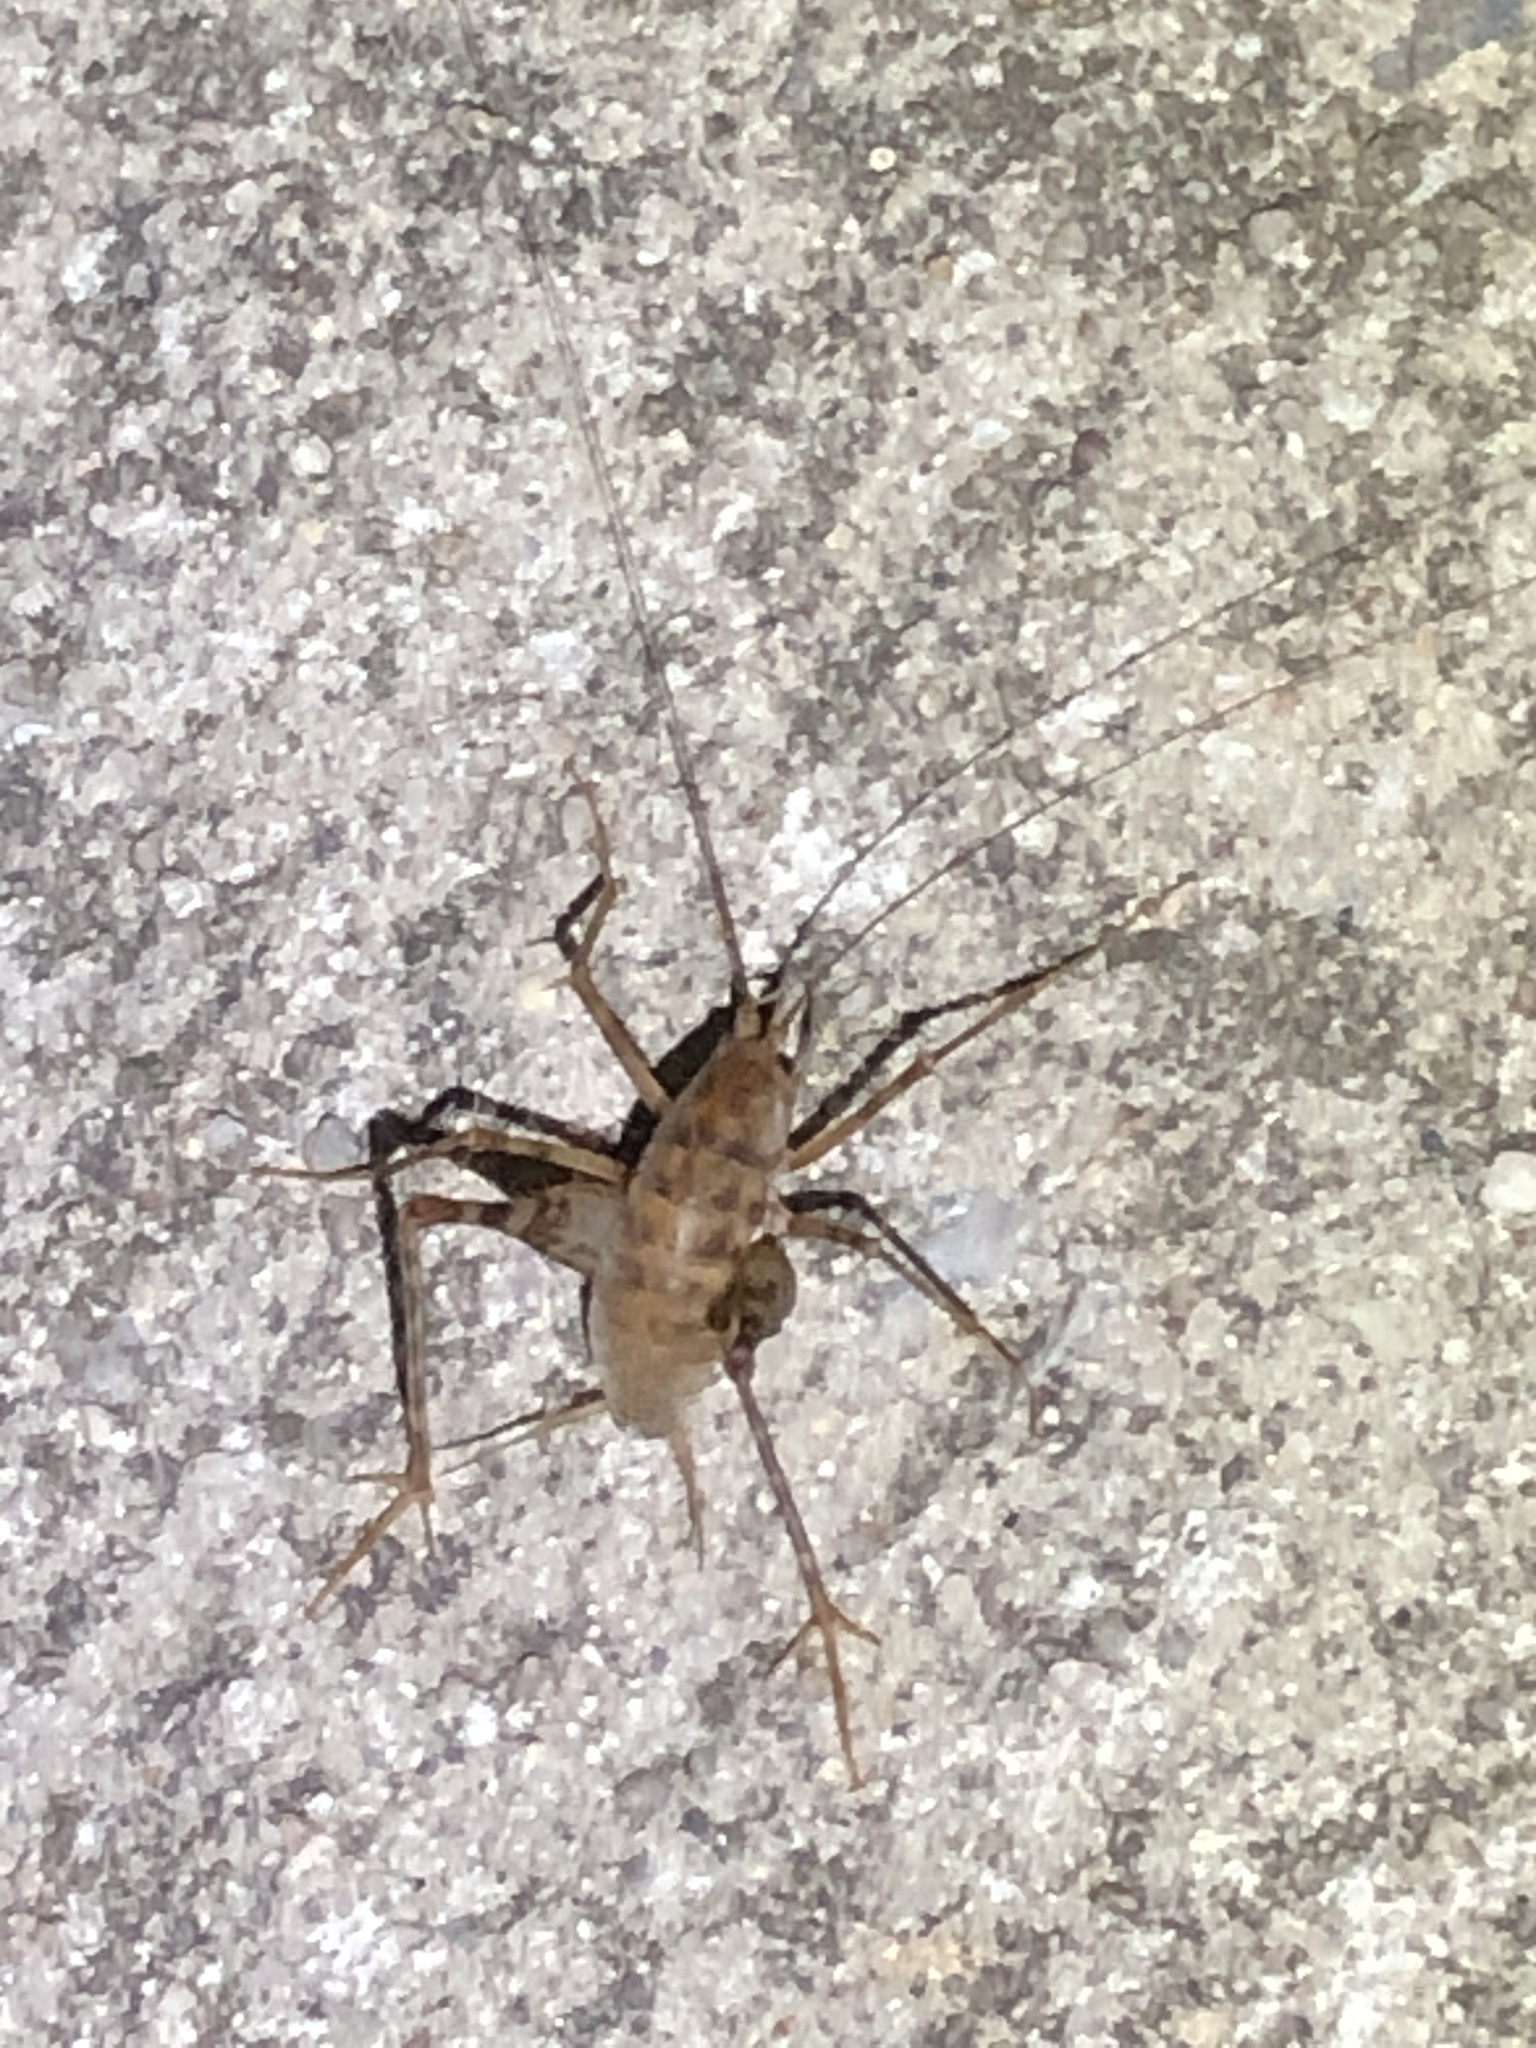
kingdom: Animalia
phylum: Arthropoda
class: Insecta
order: Orthoptera
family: Rhaphidophoridae
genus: Tachycines
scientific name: Tachycines asynamorus
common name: Greenhouse camel cricket
